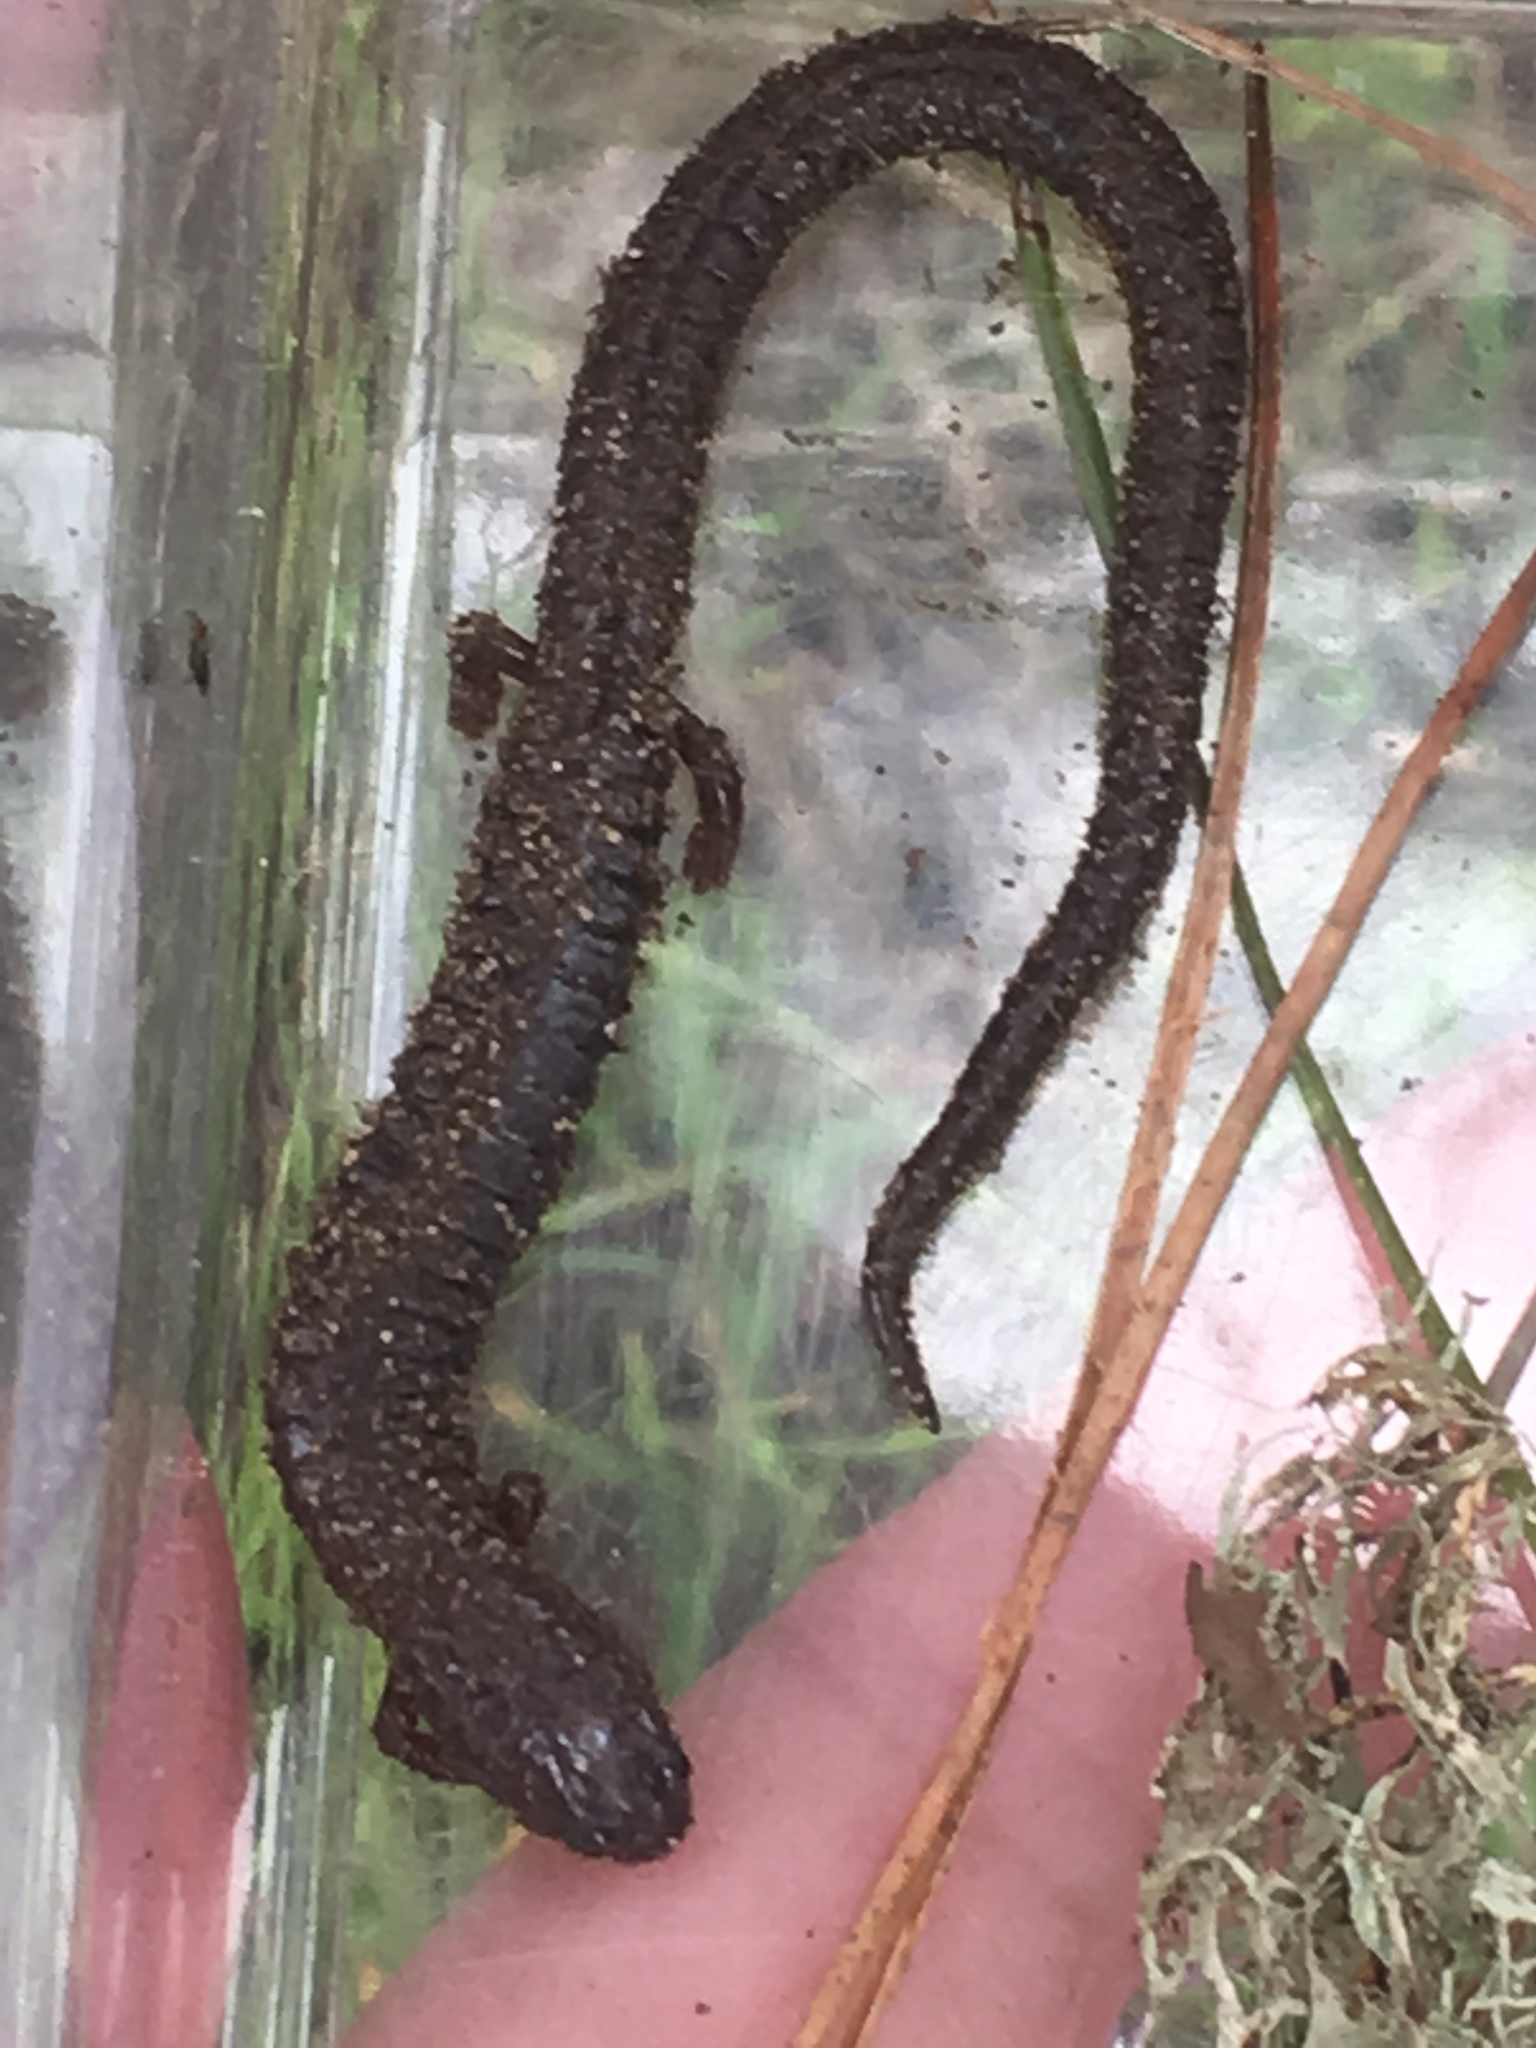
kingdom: Animalia
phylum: Chordata
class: Amphibia
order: Caudata
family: Plethodontidae
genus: Batrachoseps
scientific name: Batrachoseps attenuatus
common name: California slender salamander
